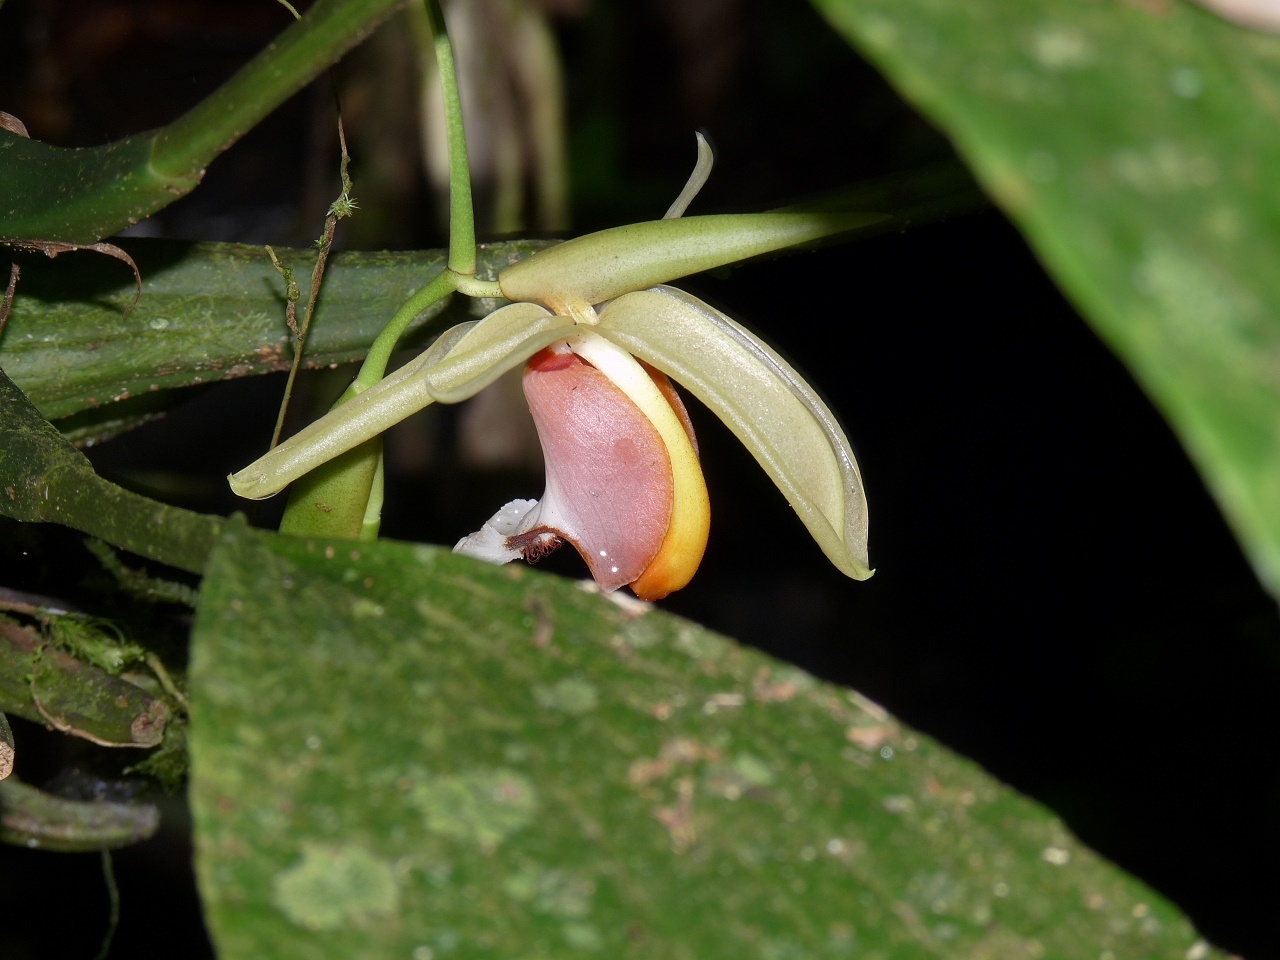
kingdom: Plantae
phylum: Tracheophyta
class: Liliopsida
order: Asparagales
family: Orchidaceae
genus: Coelogyne
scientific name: Coelogyne speciosa
